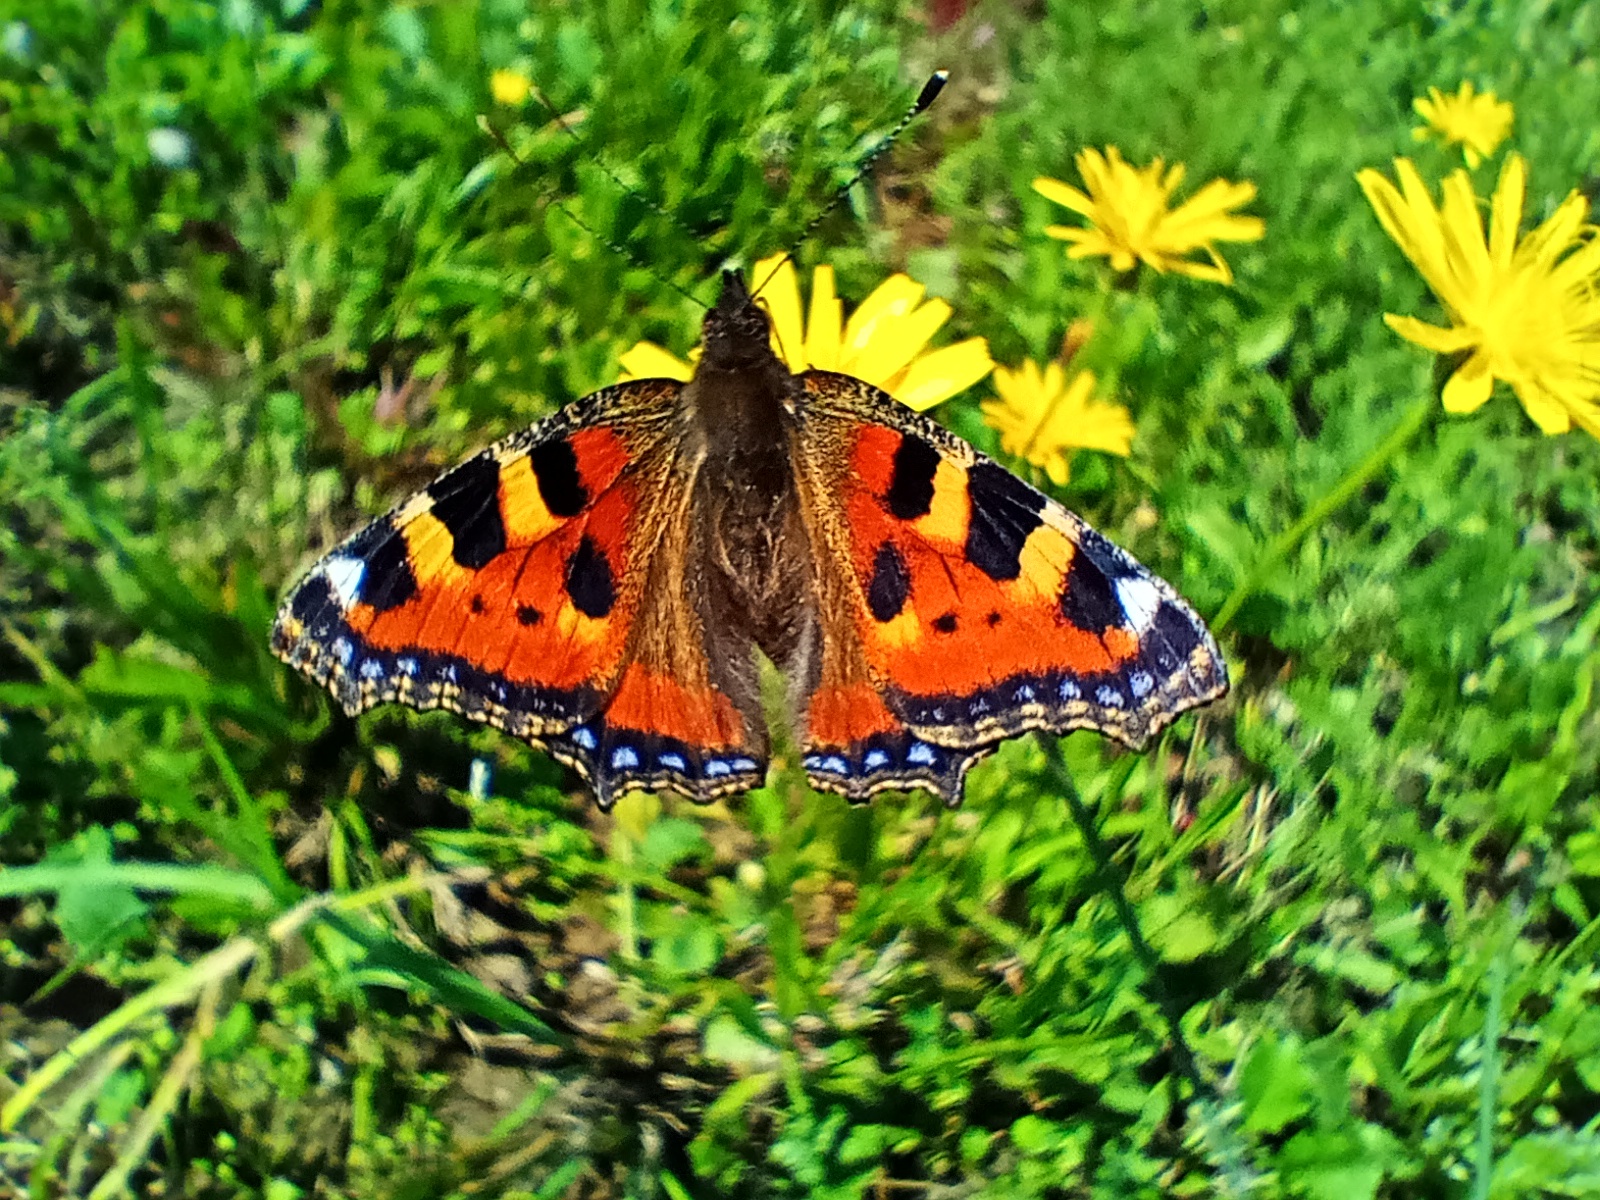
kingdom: Animalia
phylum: Arthropoda
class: Insecta
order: Lepidoptera
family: Nymphalidae
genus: Aglais
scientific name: Aglais urticae
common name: Small tortoiseshell
